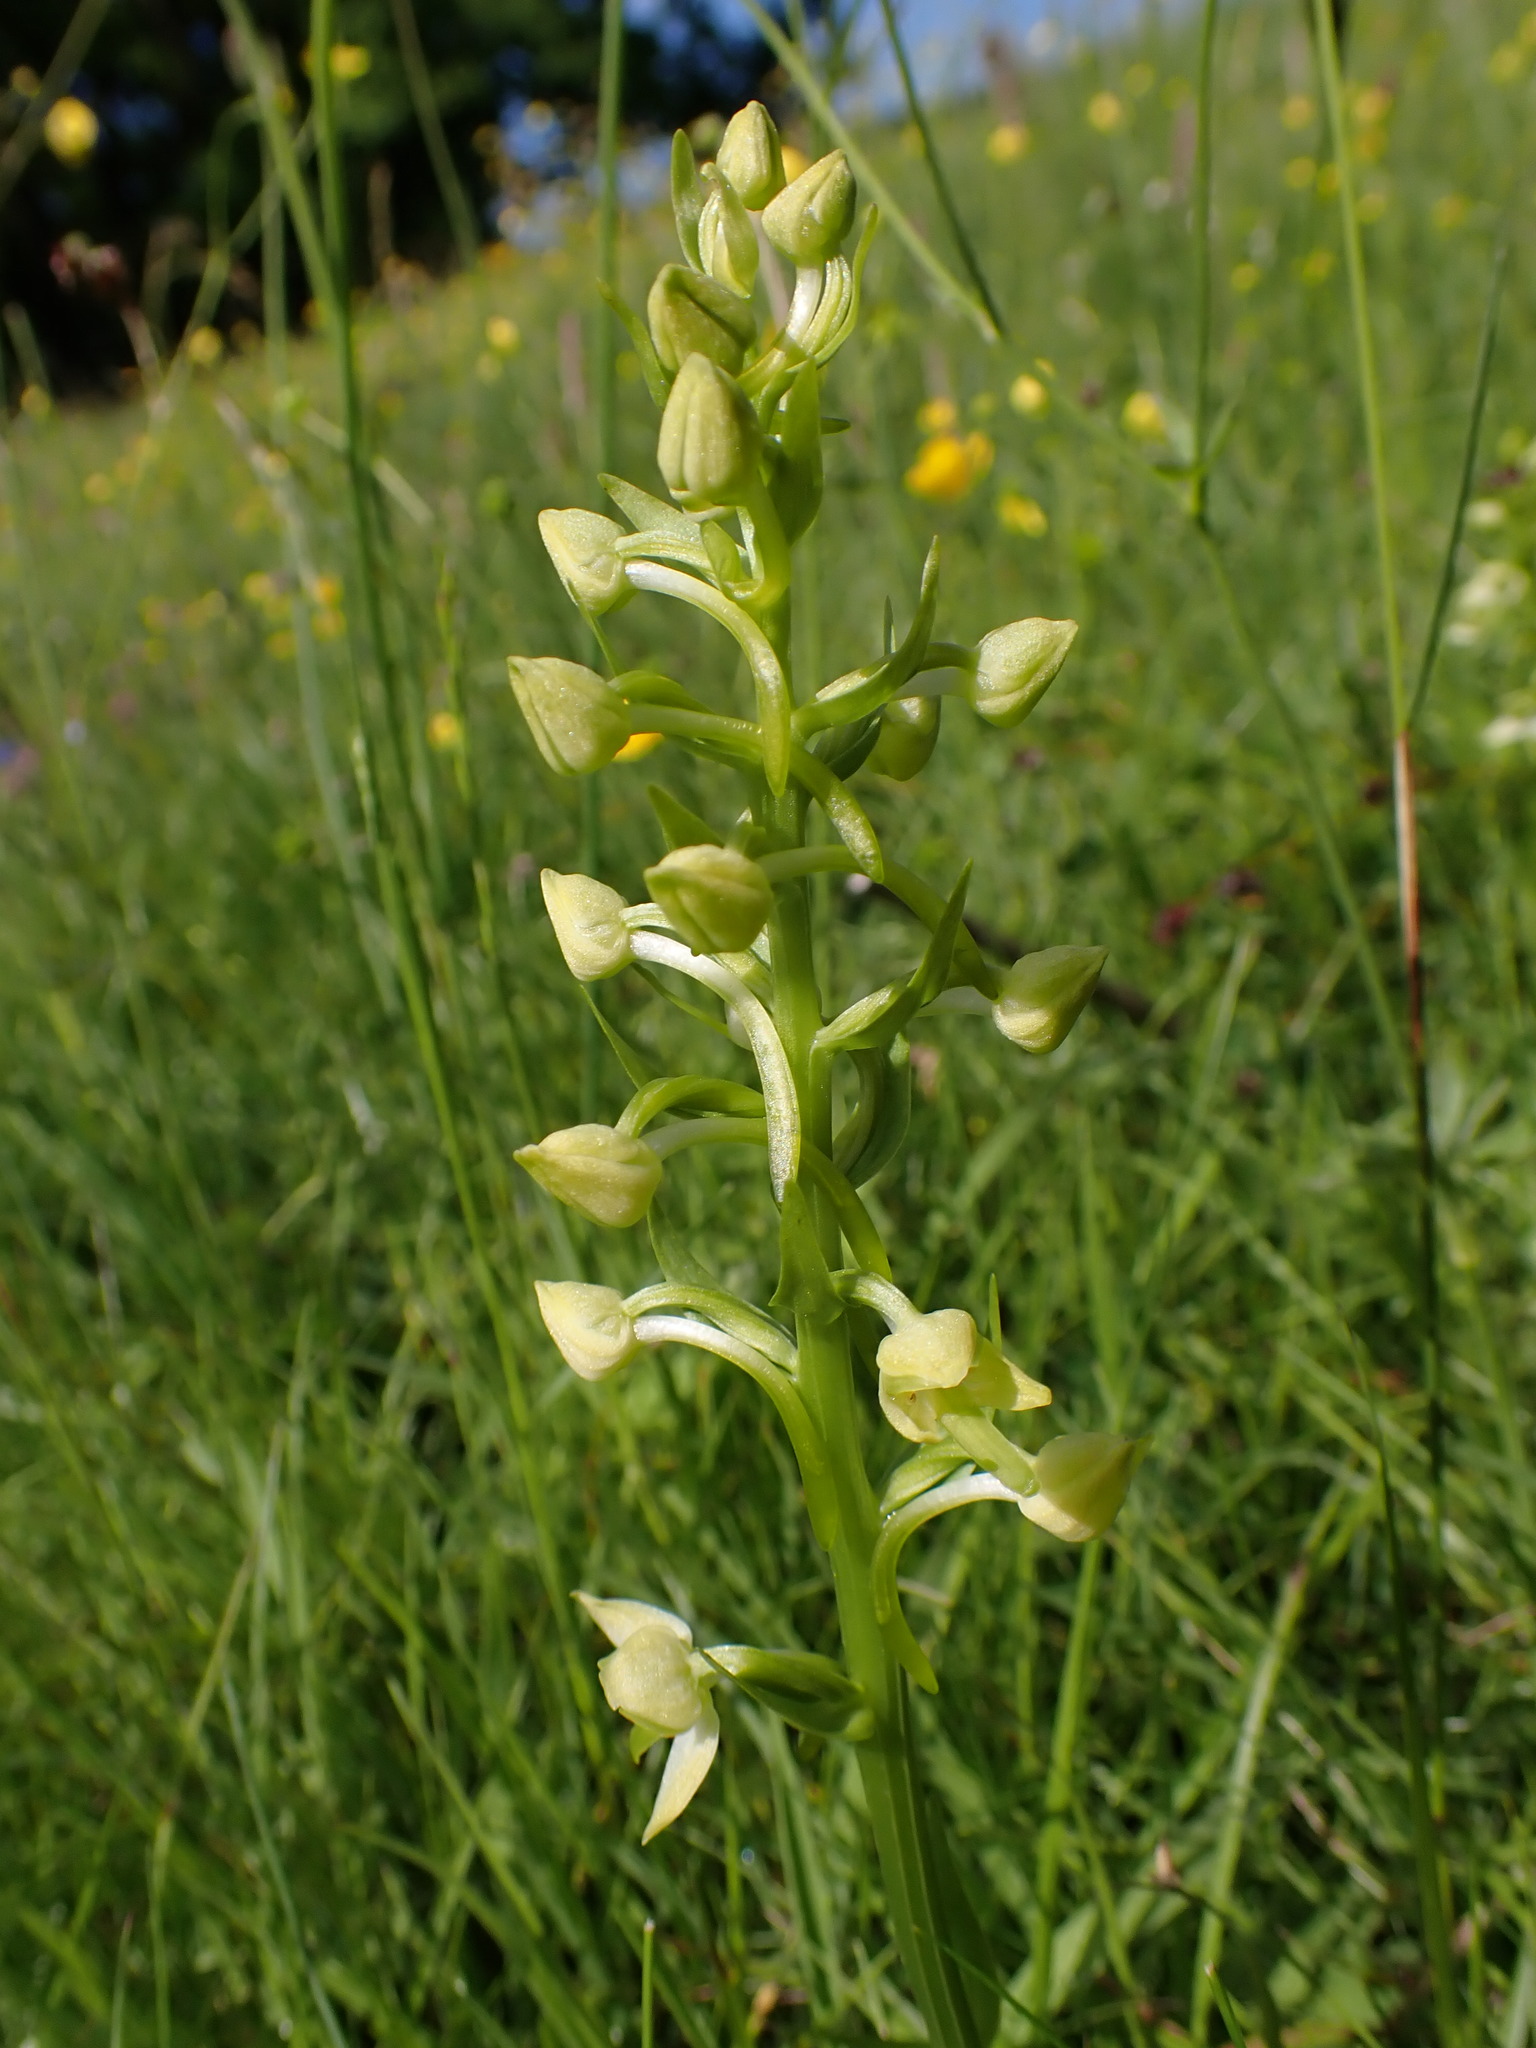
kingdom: Plantae
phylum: Tracheophyta
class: Liliopsida
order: Asparagales
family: Orchidaceae
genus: Platanthera
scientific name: Platanthera chlorantha
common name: Greater butterfly-orchid
